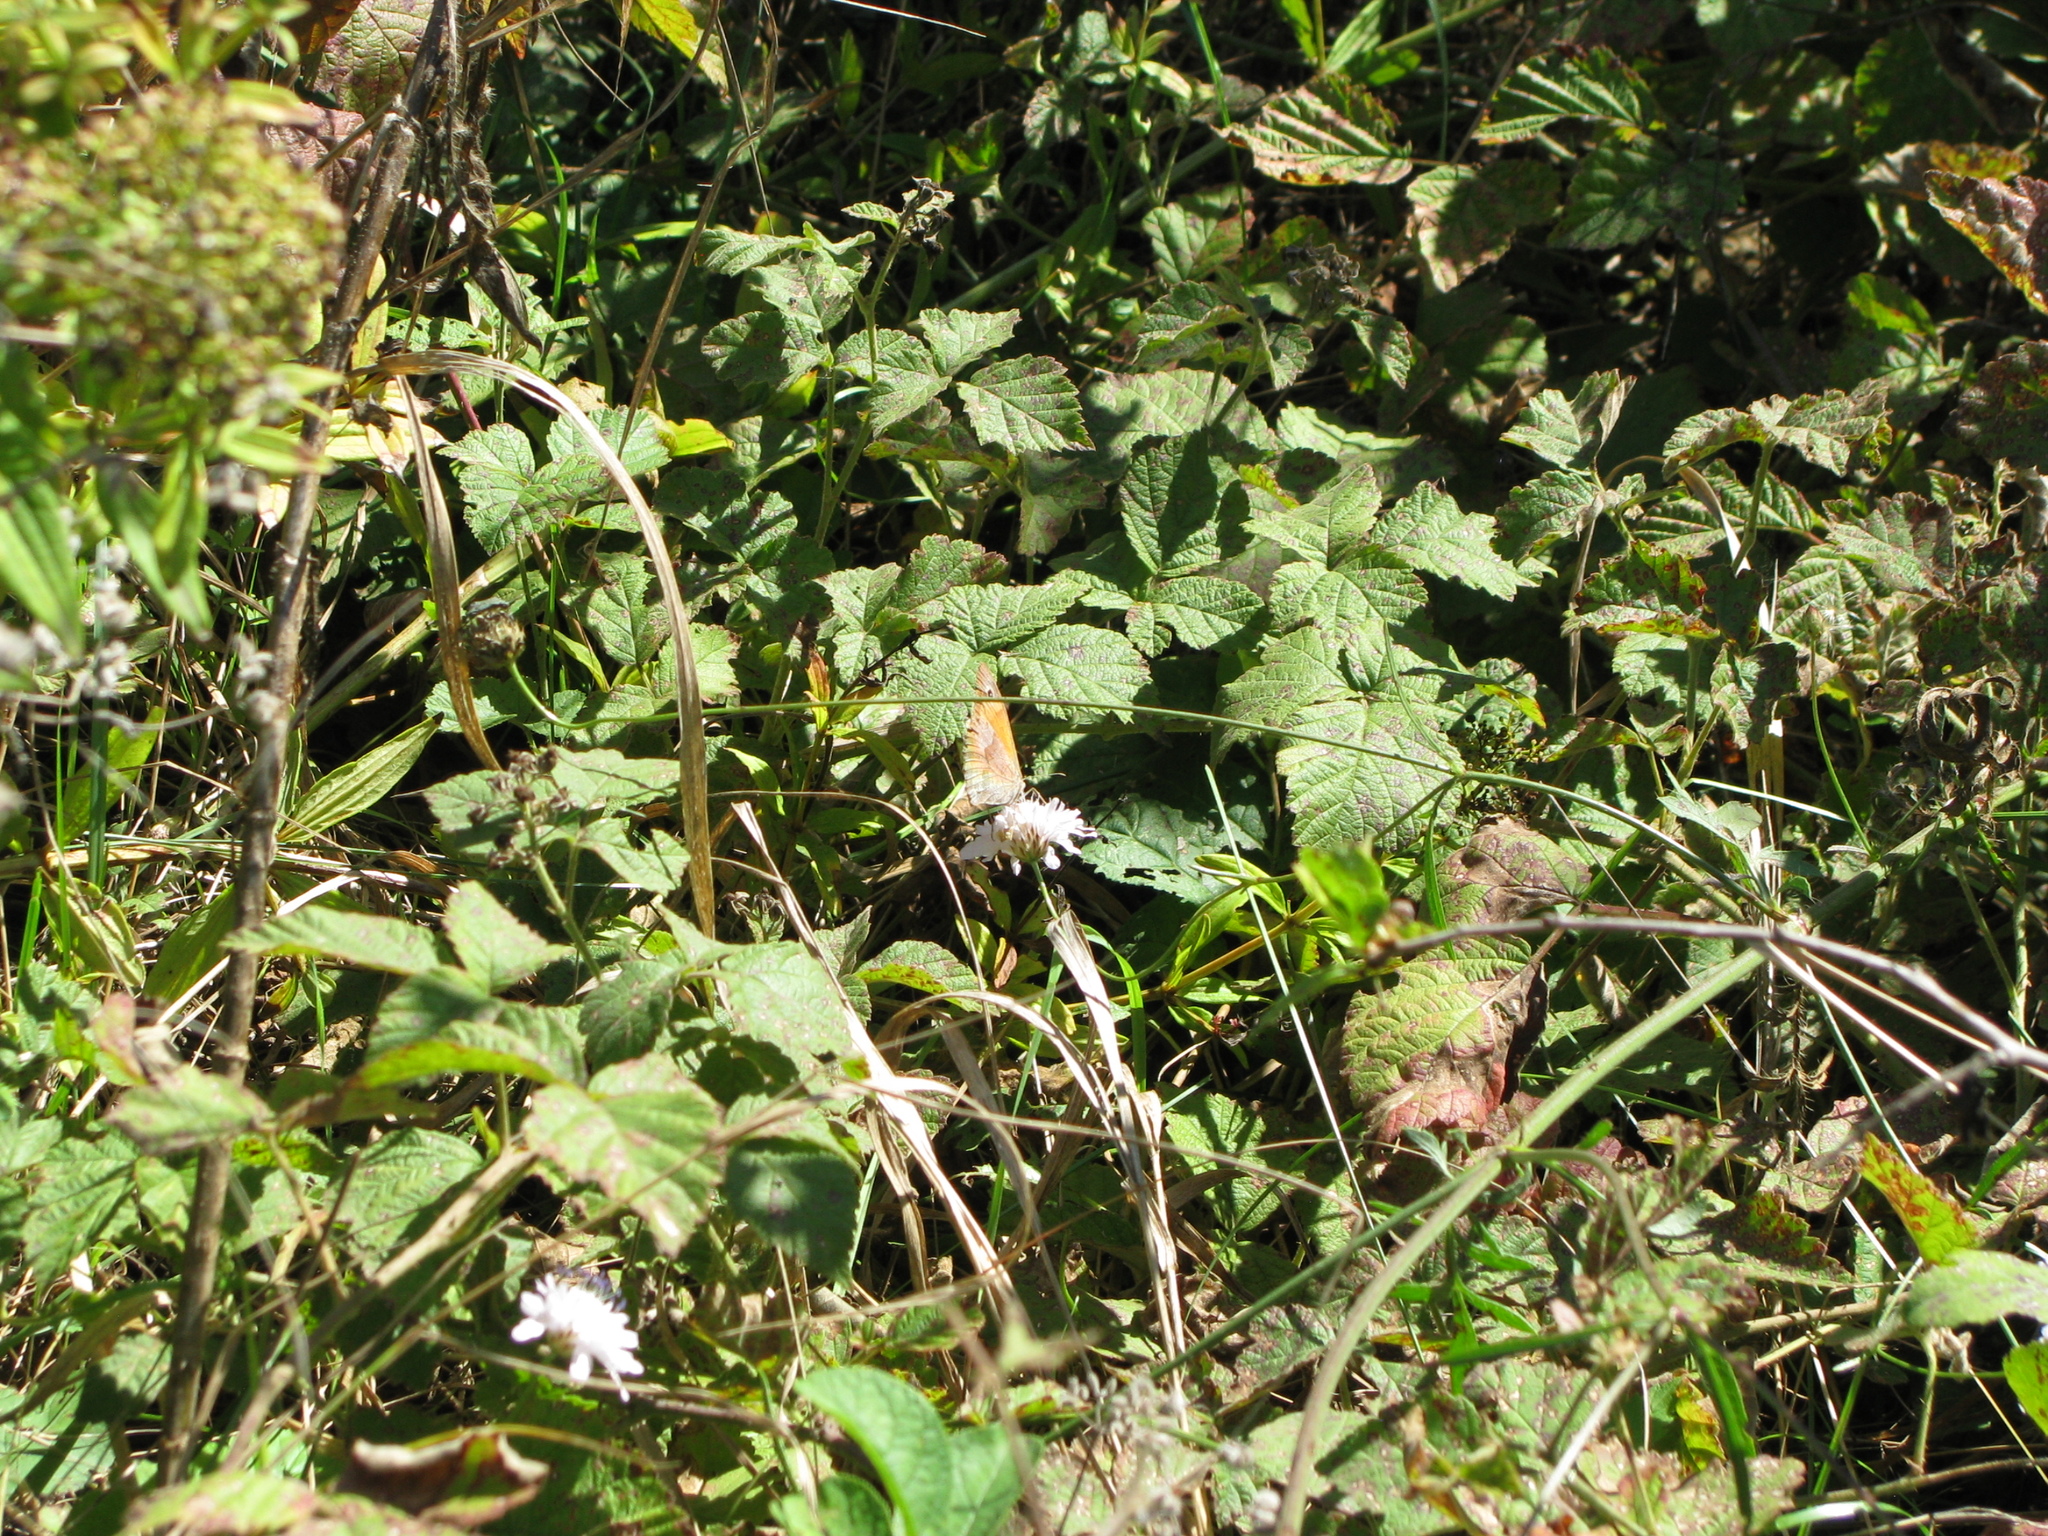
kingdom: Animalia
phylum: Arthropoda
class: Insecta
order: Lepidoptera
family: Nymphalidae
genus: Maniola
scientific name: Maniola jurtina
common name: Meadow brown
